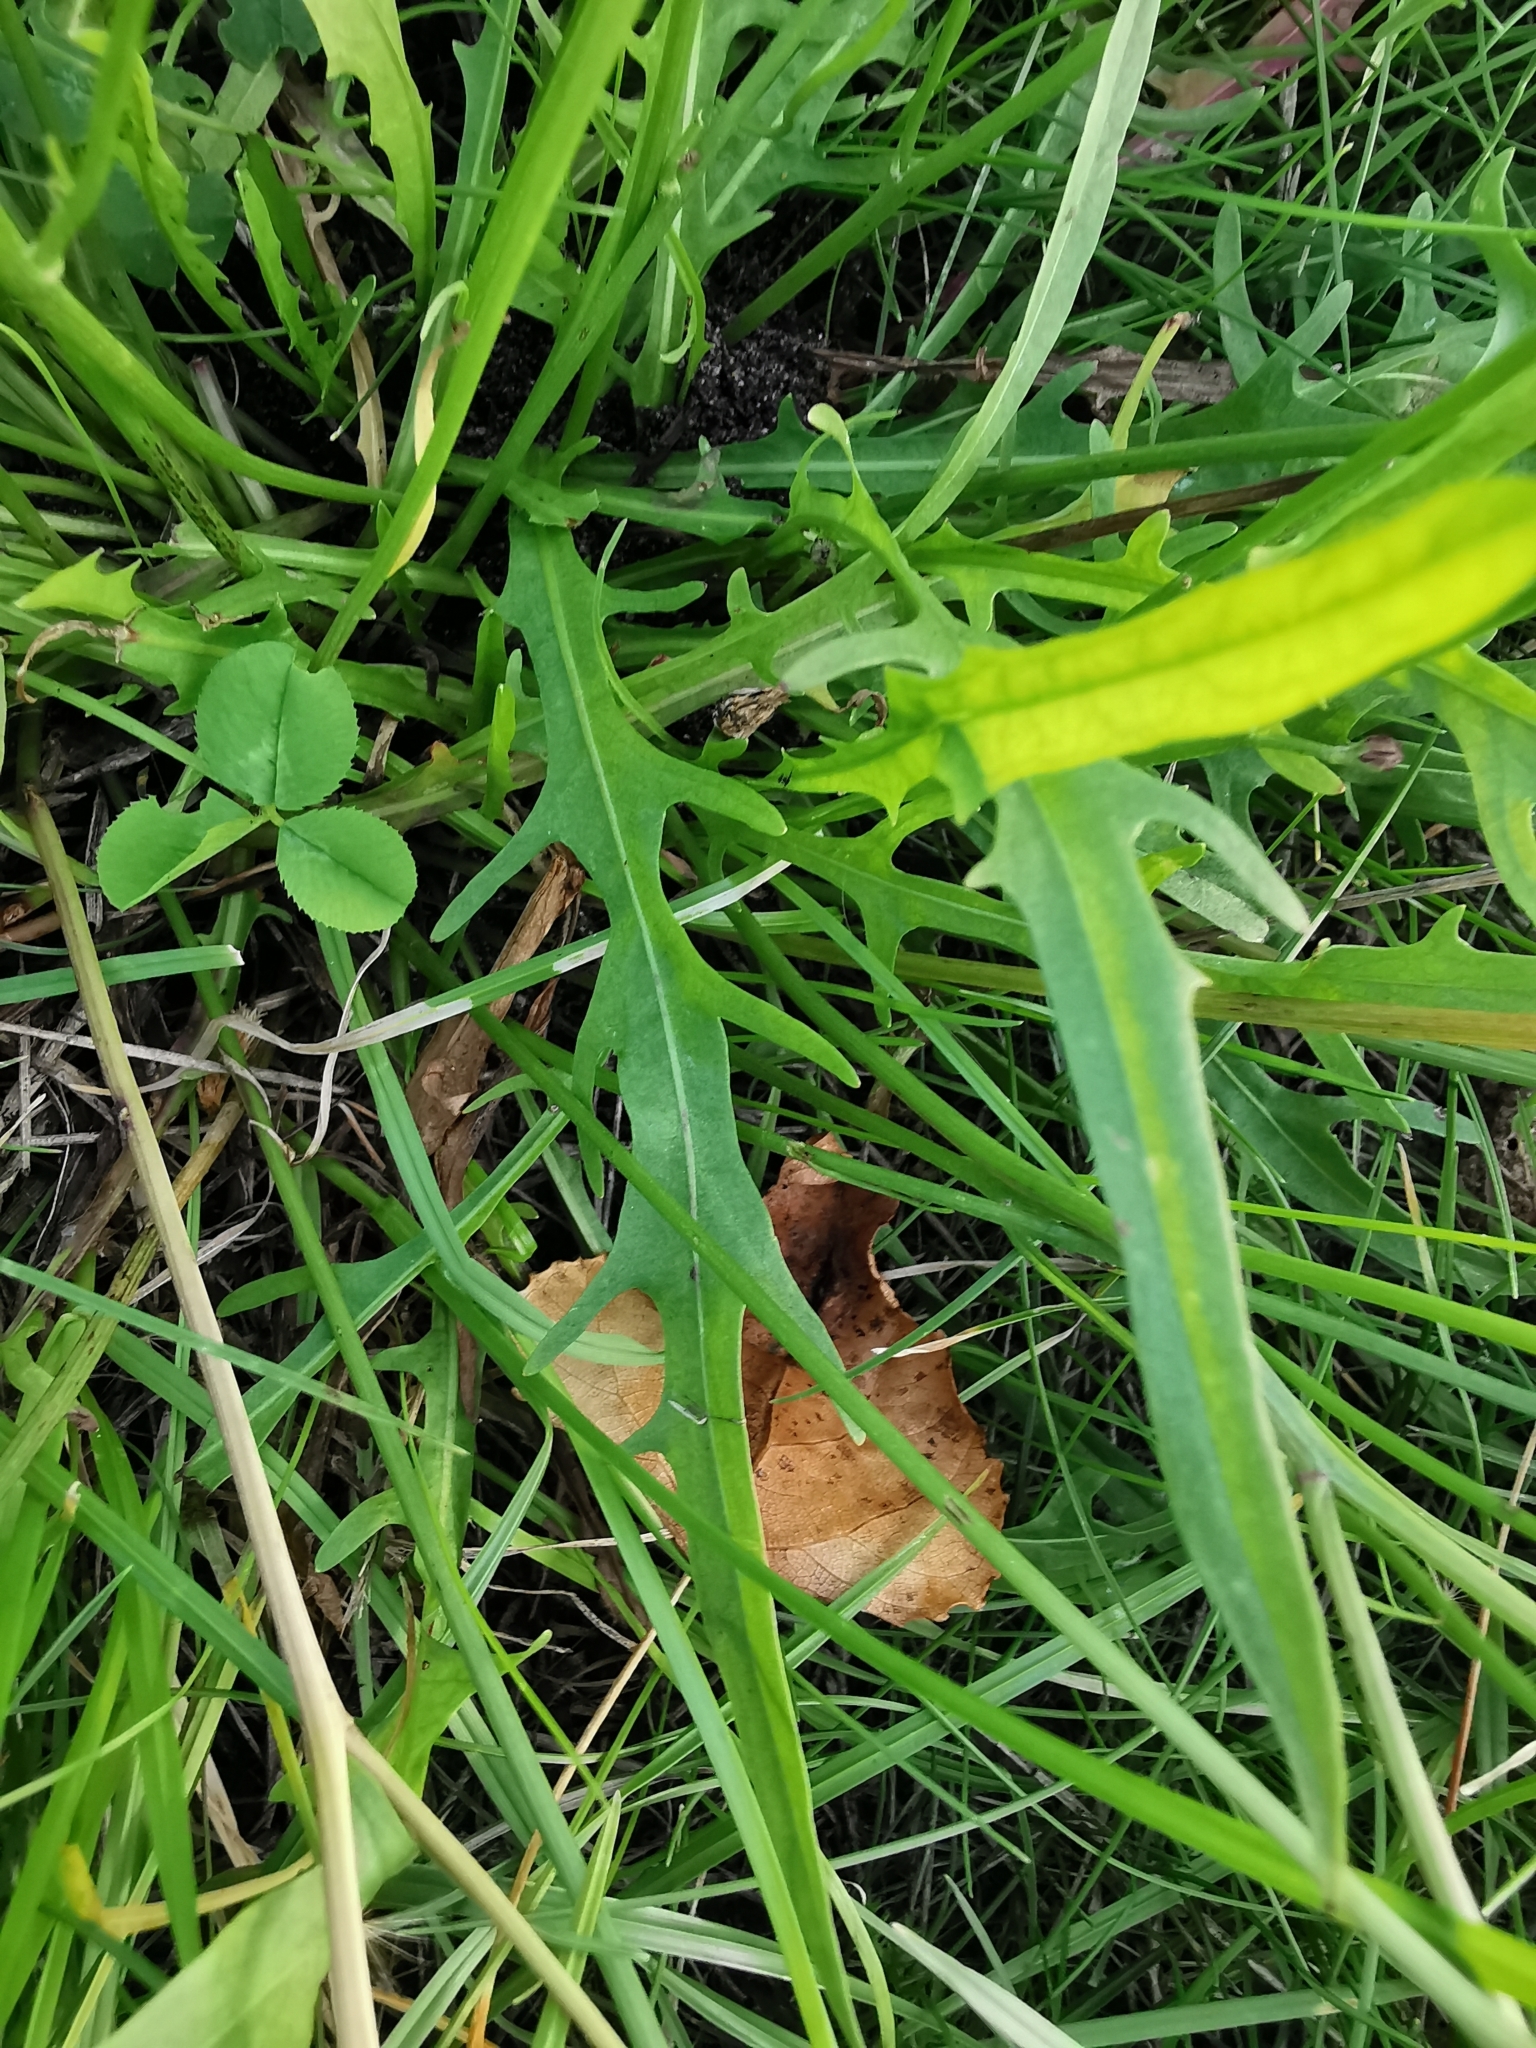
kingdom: Plantae
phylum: Tracheophyta
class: Magnoliopsida
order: Asterales
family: Asteraceae
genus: Scorzoneroides
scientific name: Scorzoneroides autumnalis
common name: Autumn hawkbit
